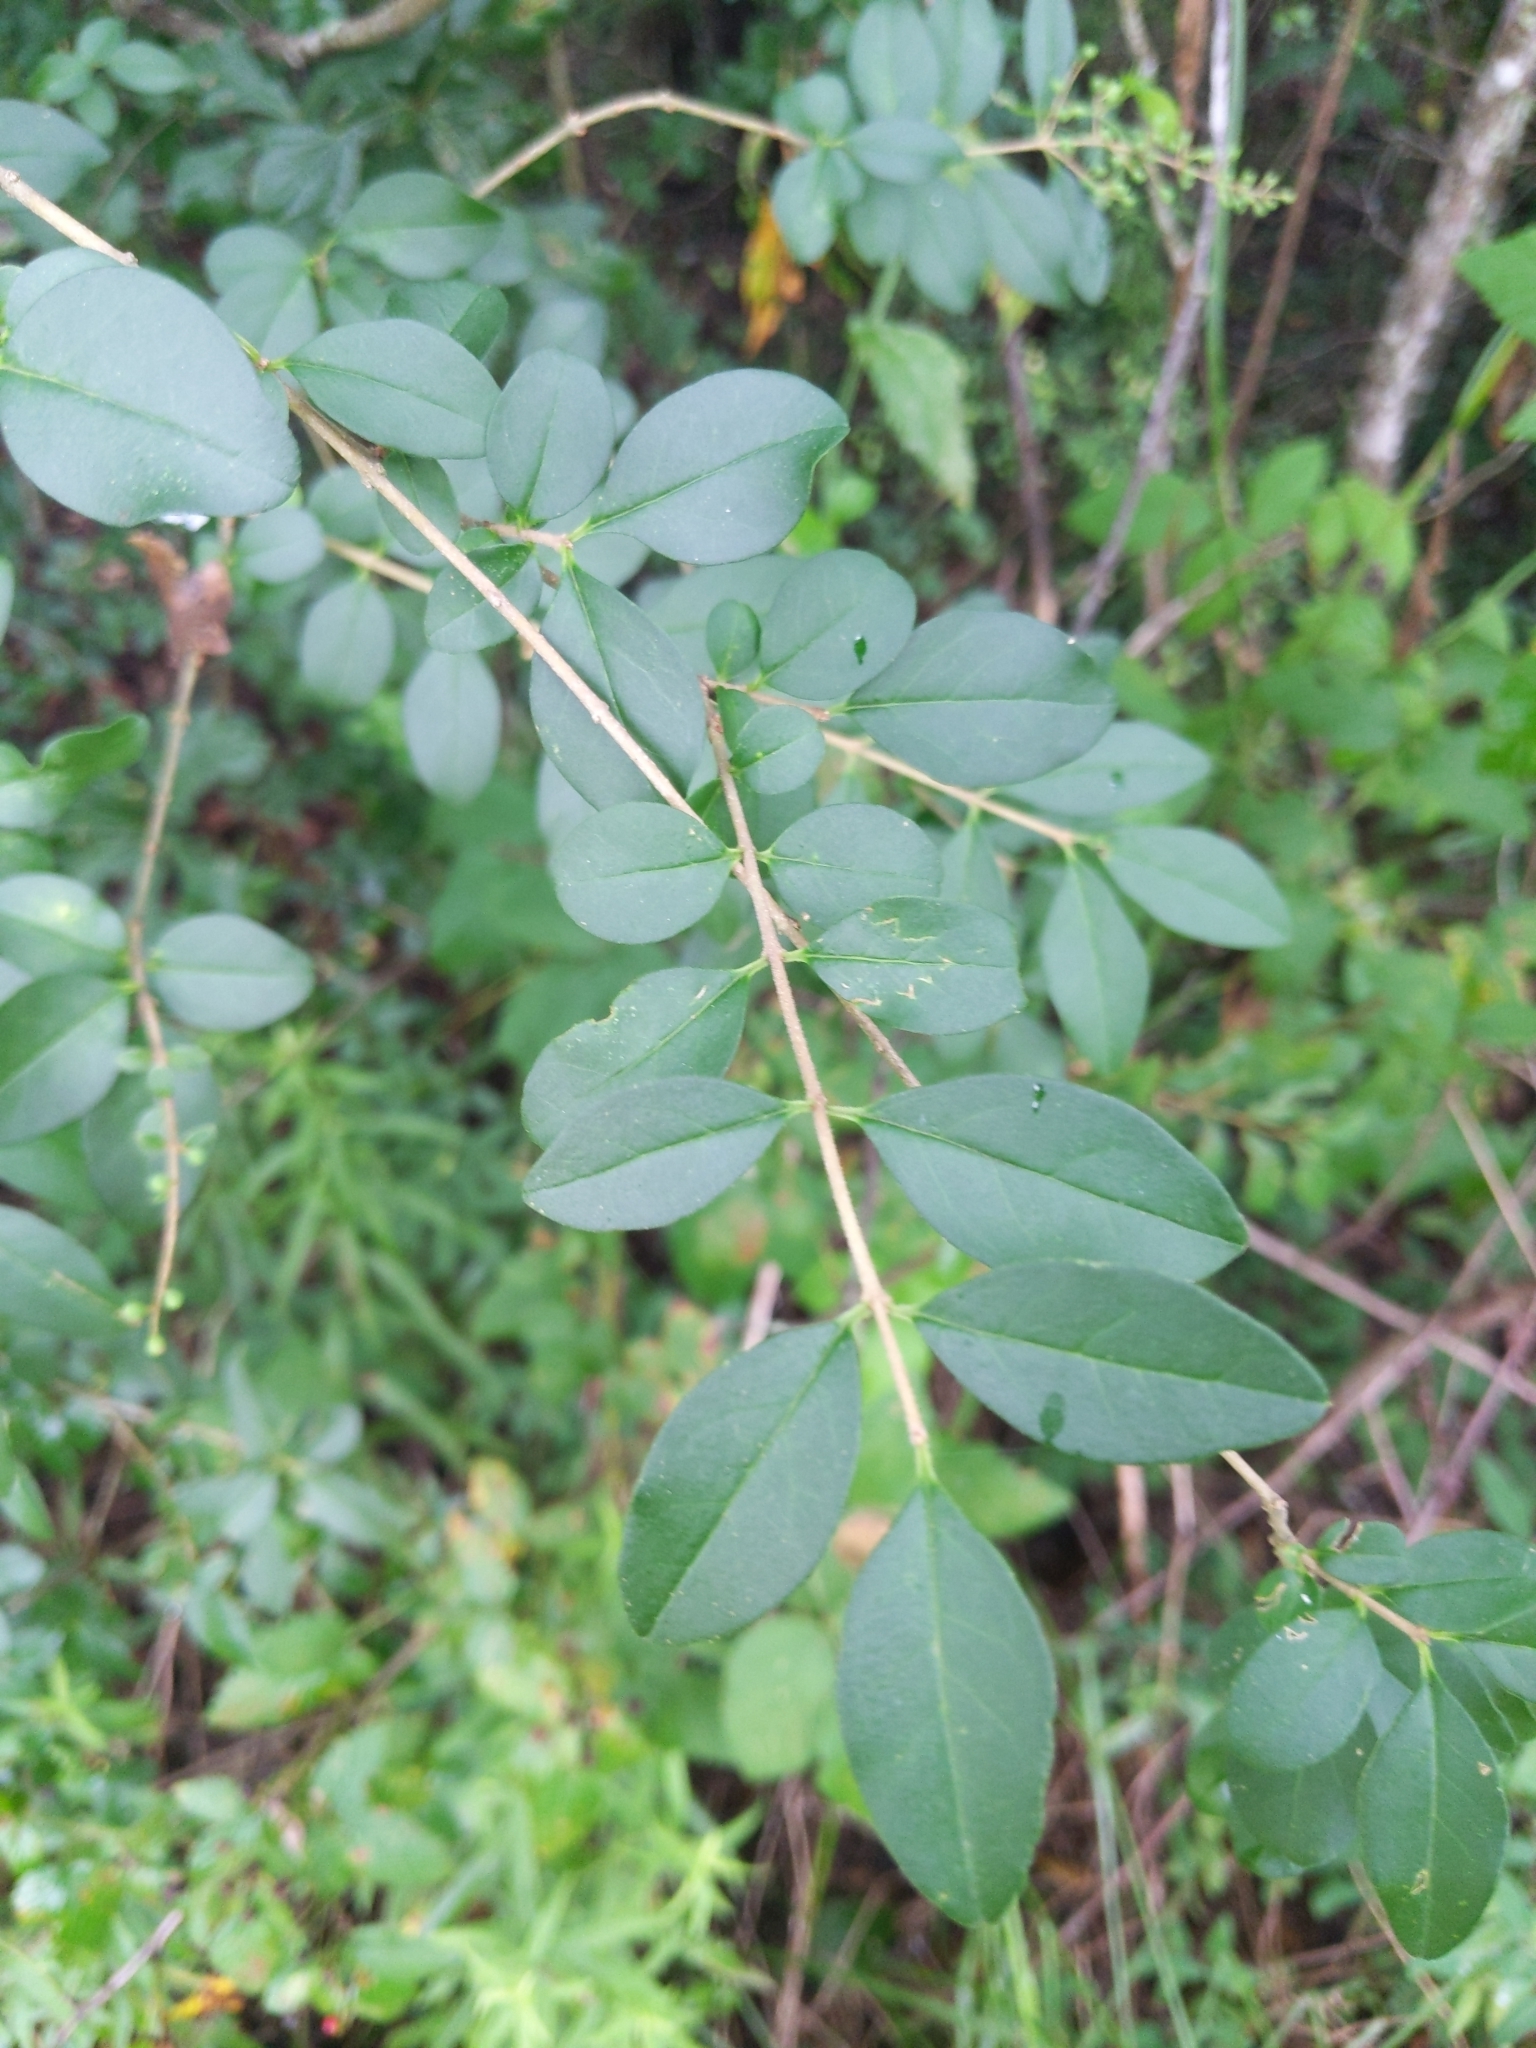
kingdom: Plantae
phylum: Tracheophyta
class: Magnoliopsida
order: Lamiales
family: Oleaceae
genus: Ligustrum
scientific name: Ligustrum sinense
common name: Chinese privet
